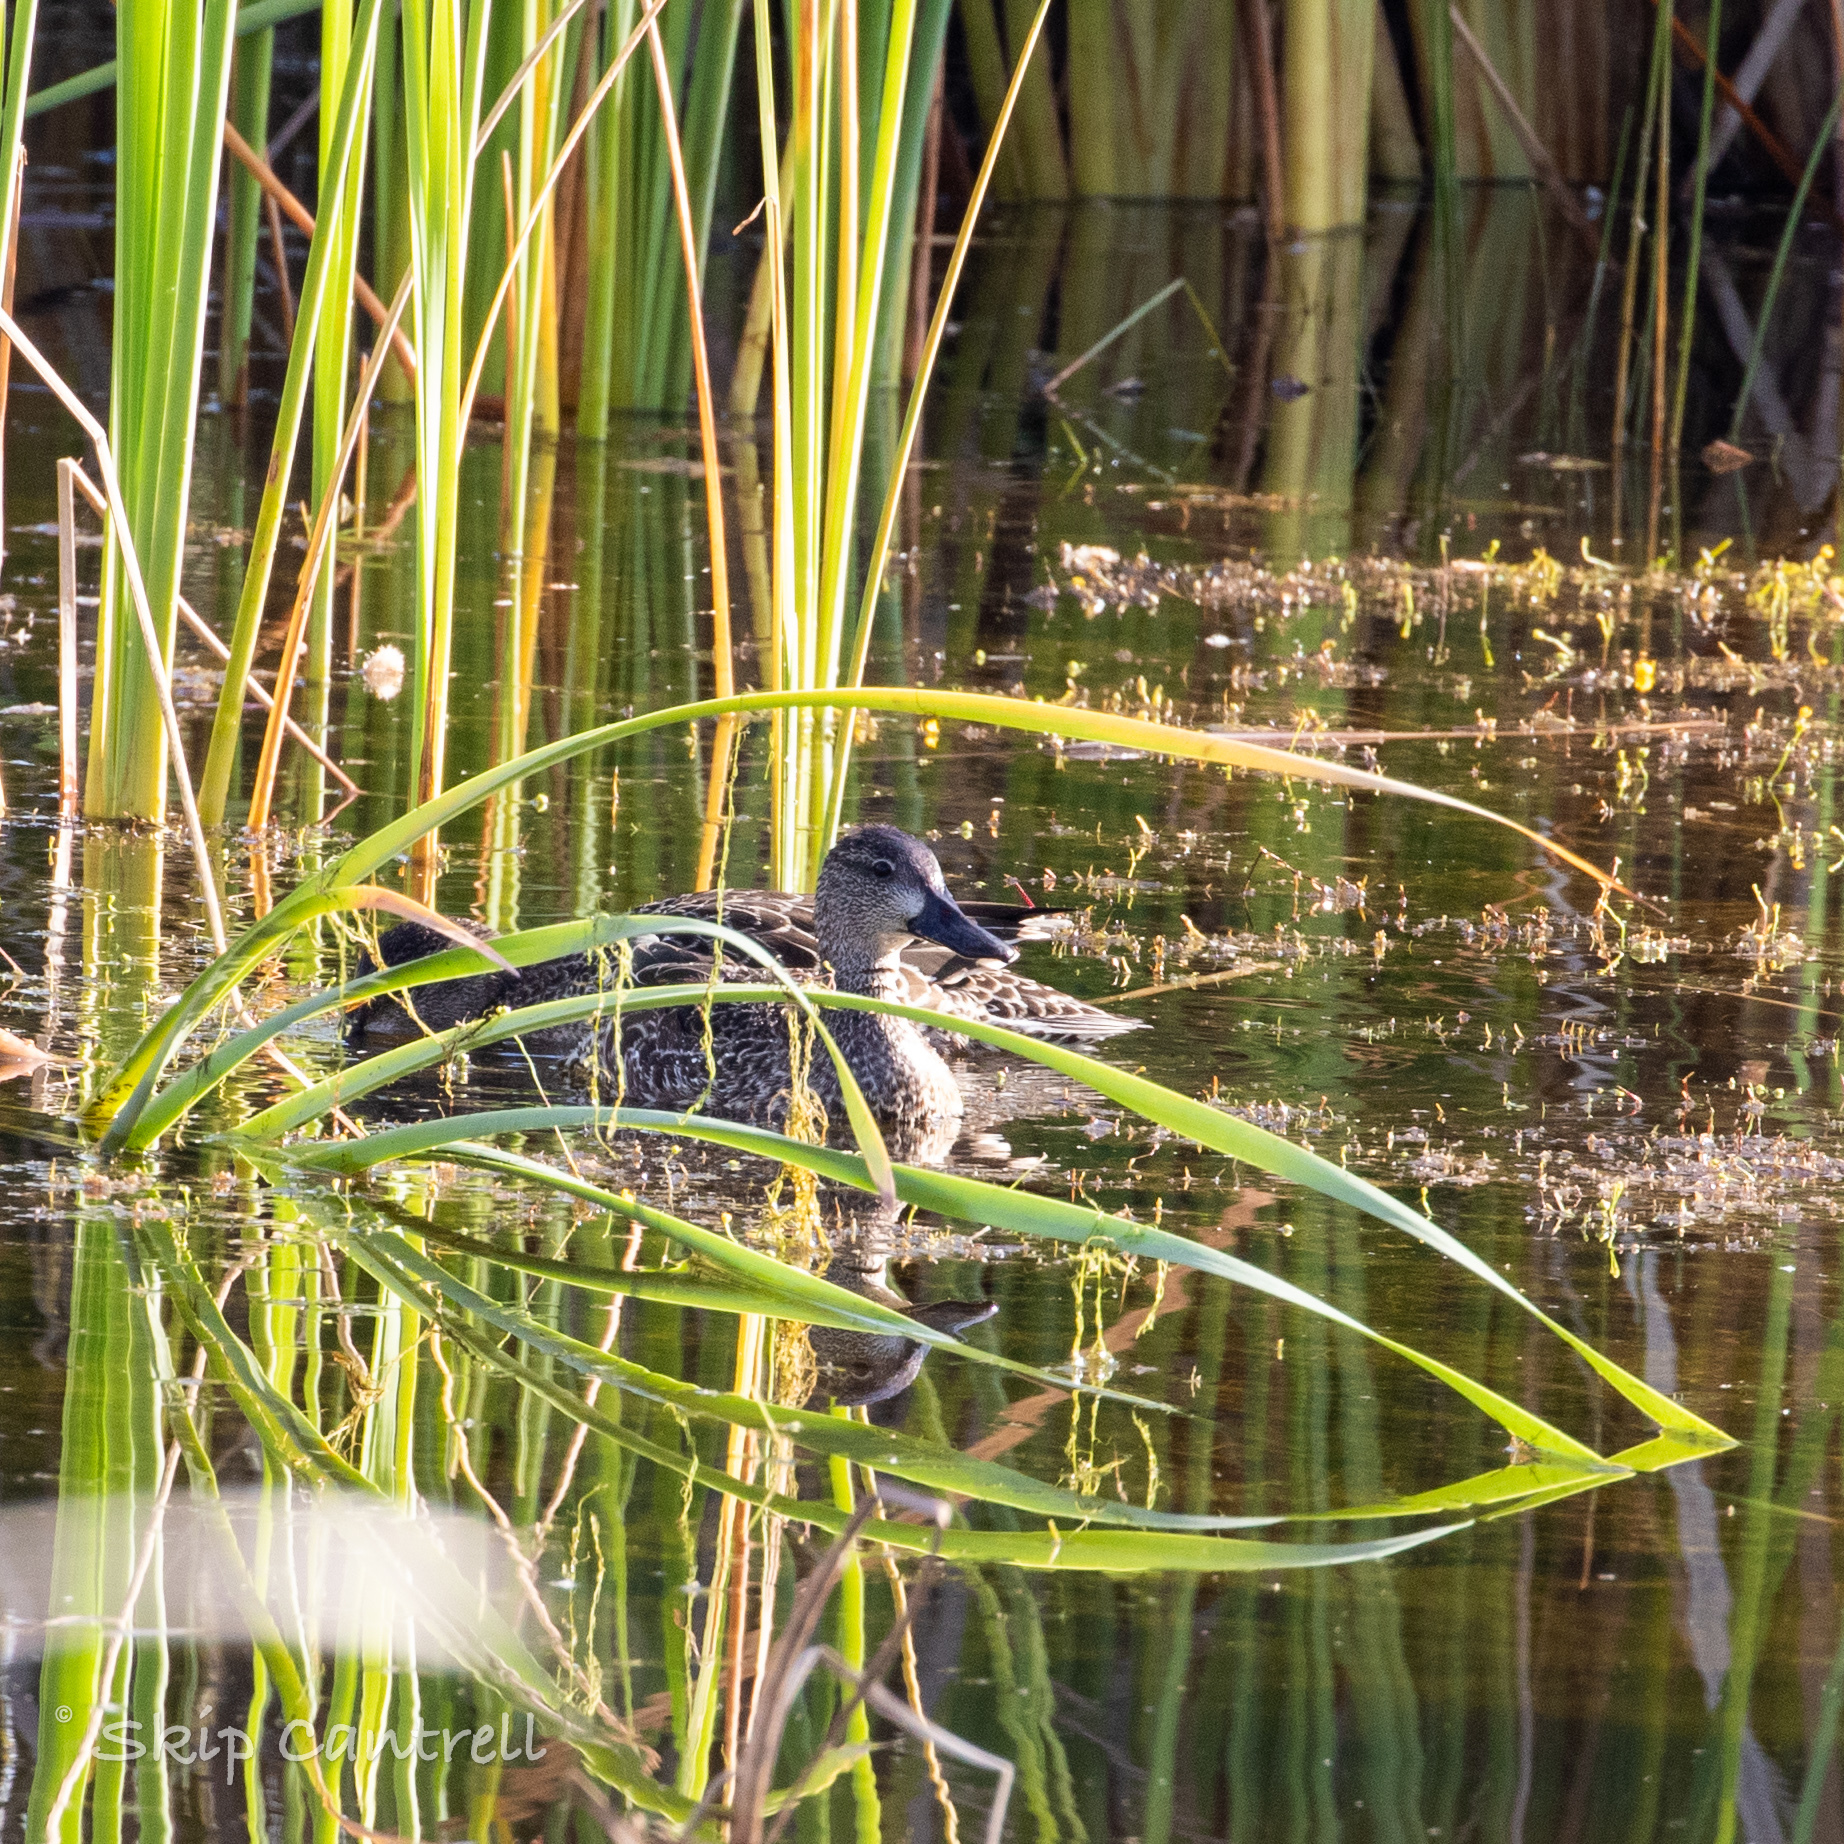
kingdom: Animalia
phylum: Chordata
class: Aves
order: Anseriformes
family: Anatidae
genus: Spatula
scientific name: Spatula discors
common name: Blue-winged teal
